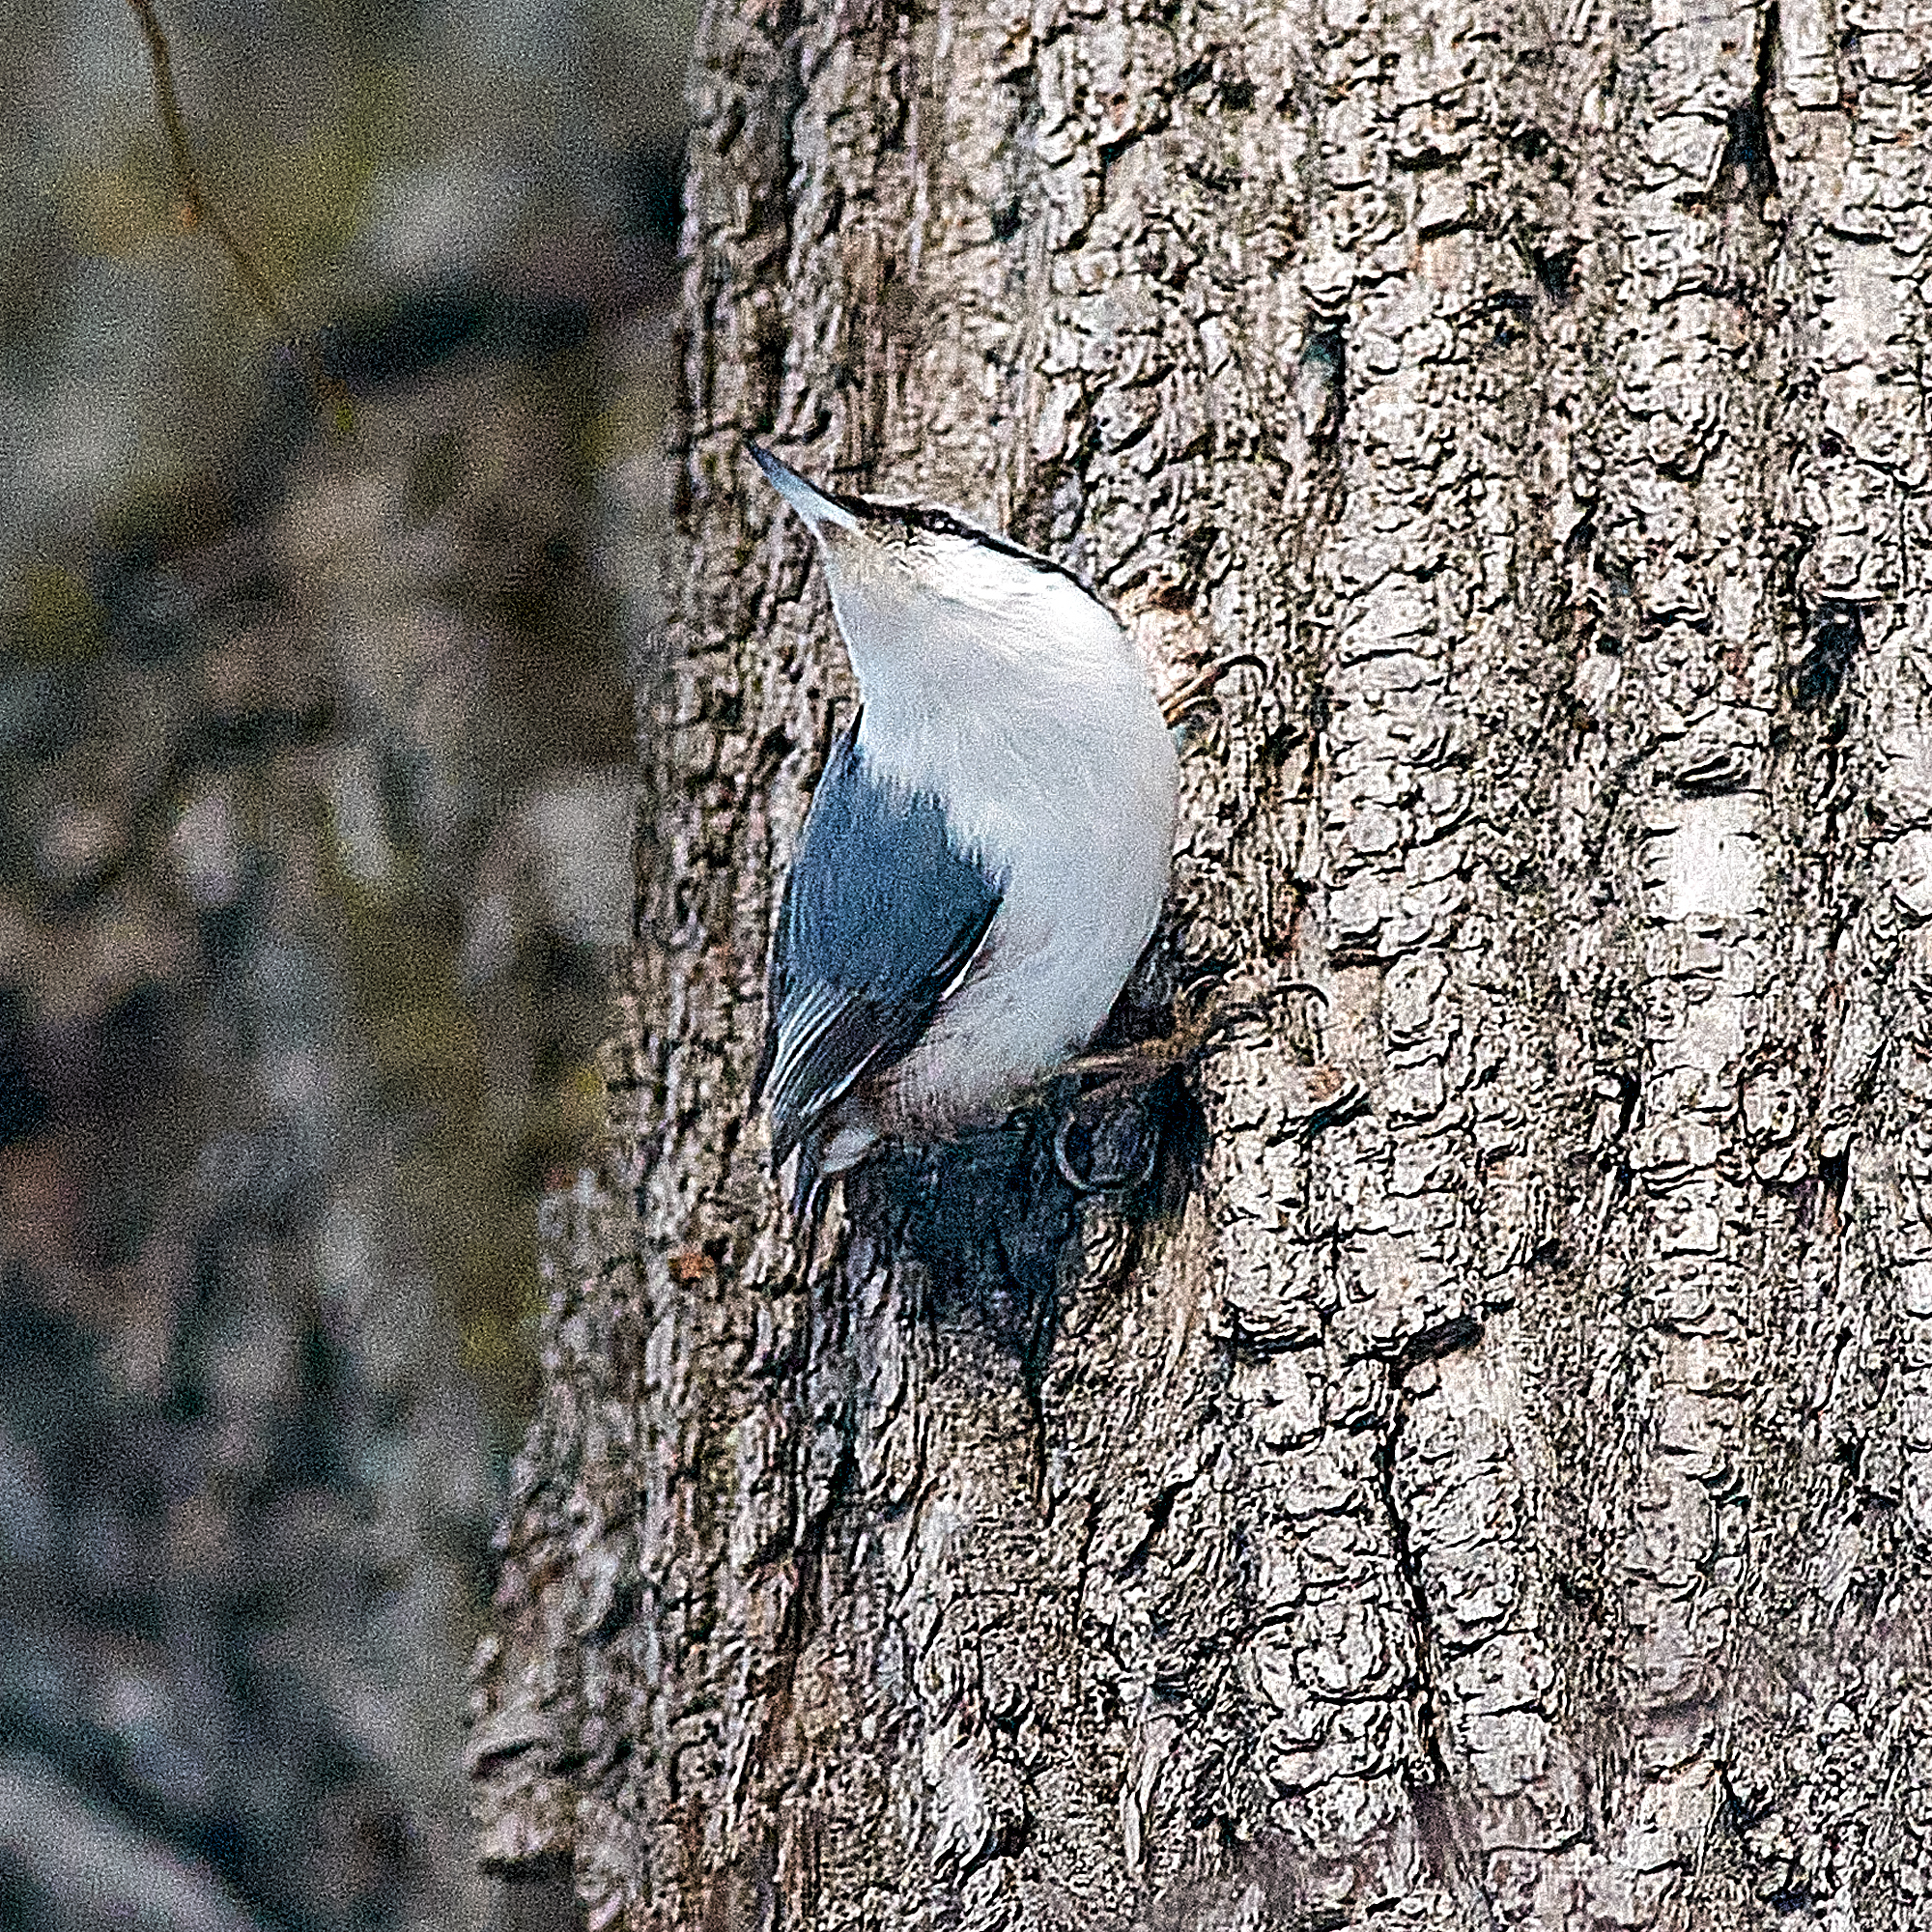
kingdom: Animalia
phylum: Chordata
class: Aves
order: Passeriformes
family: Sittidae
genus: Sitta
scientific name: Sitta europaea
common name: Eurasian nuthatch
